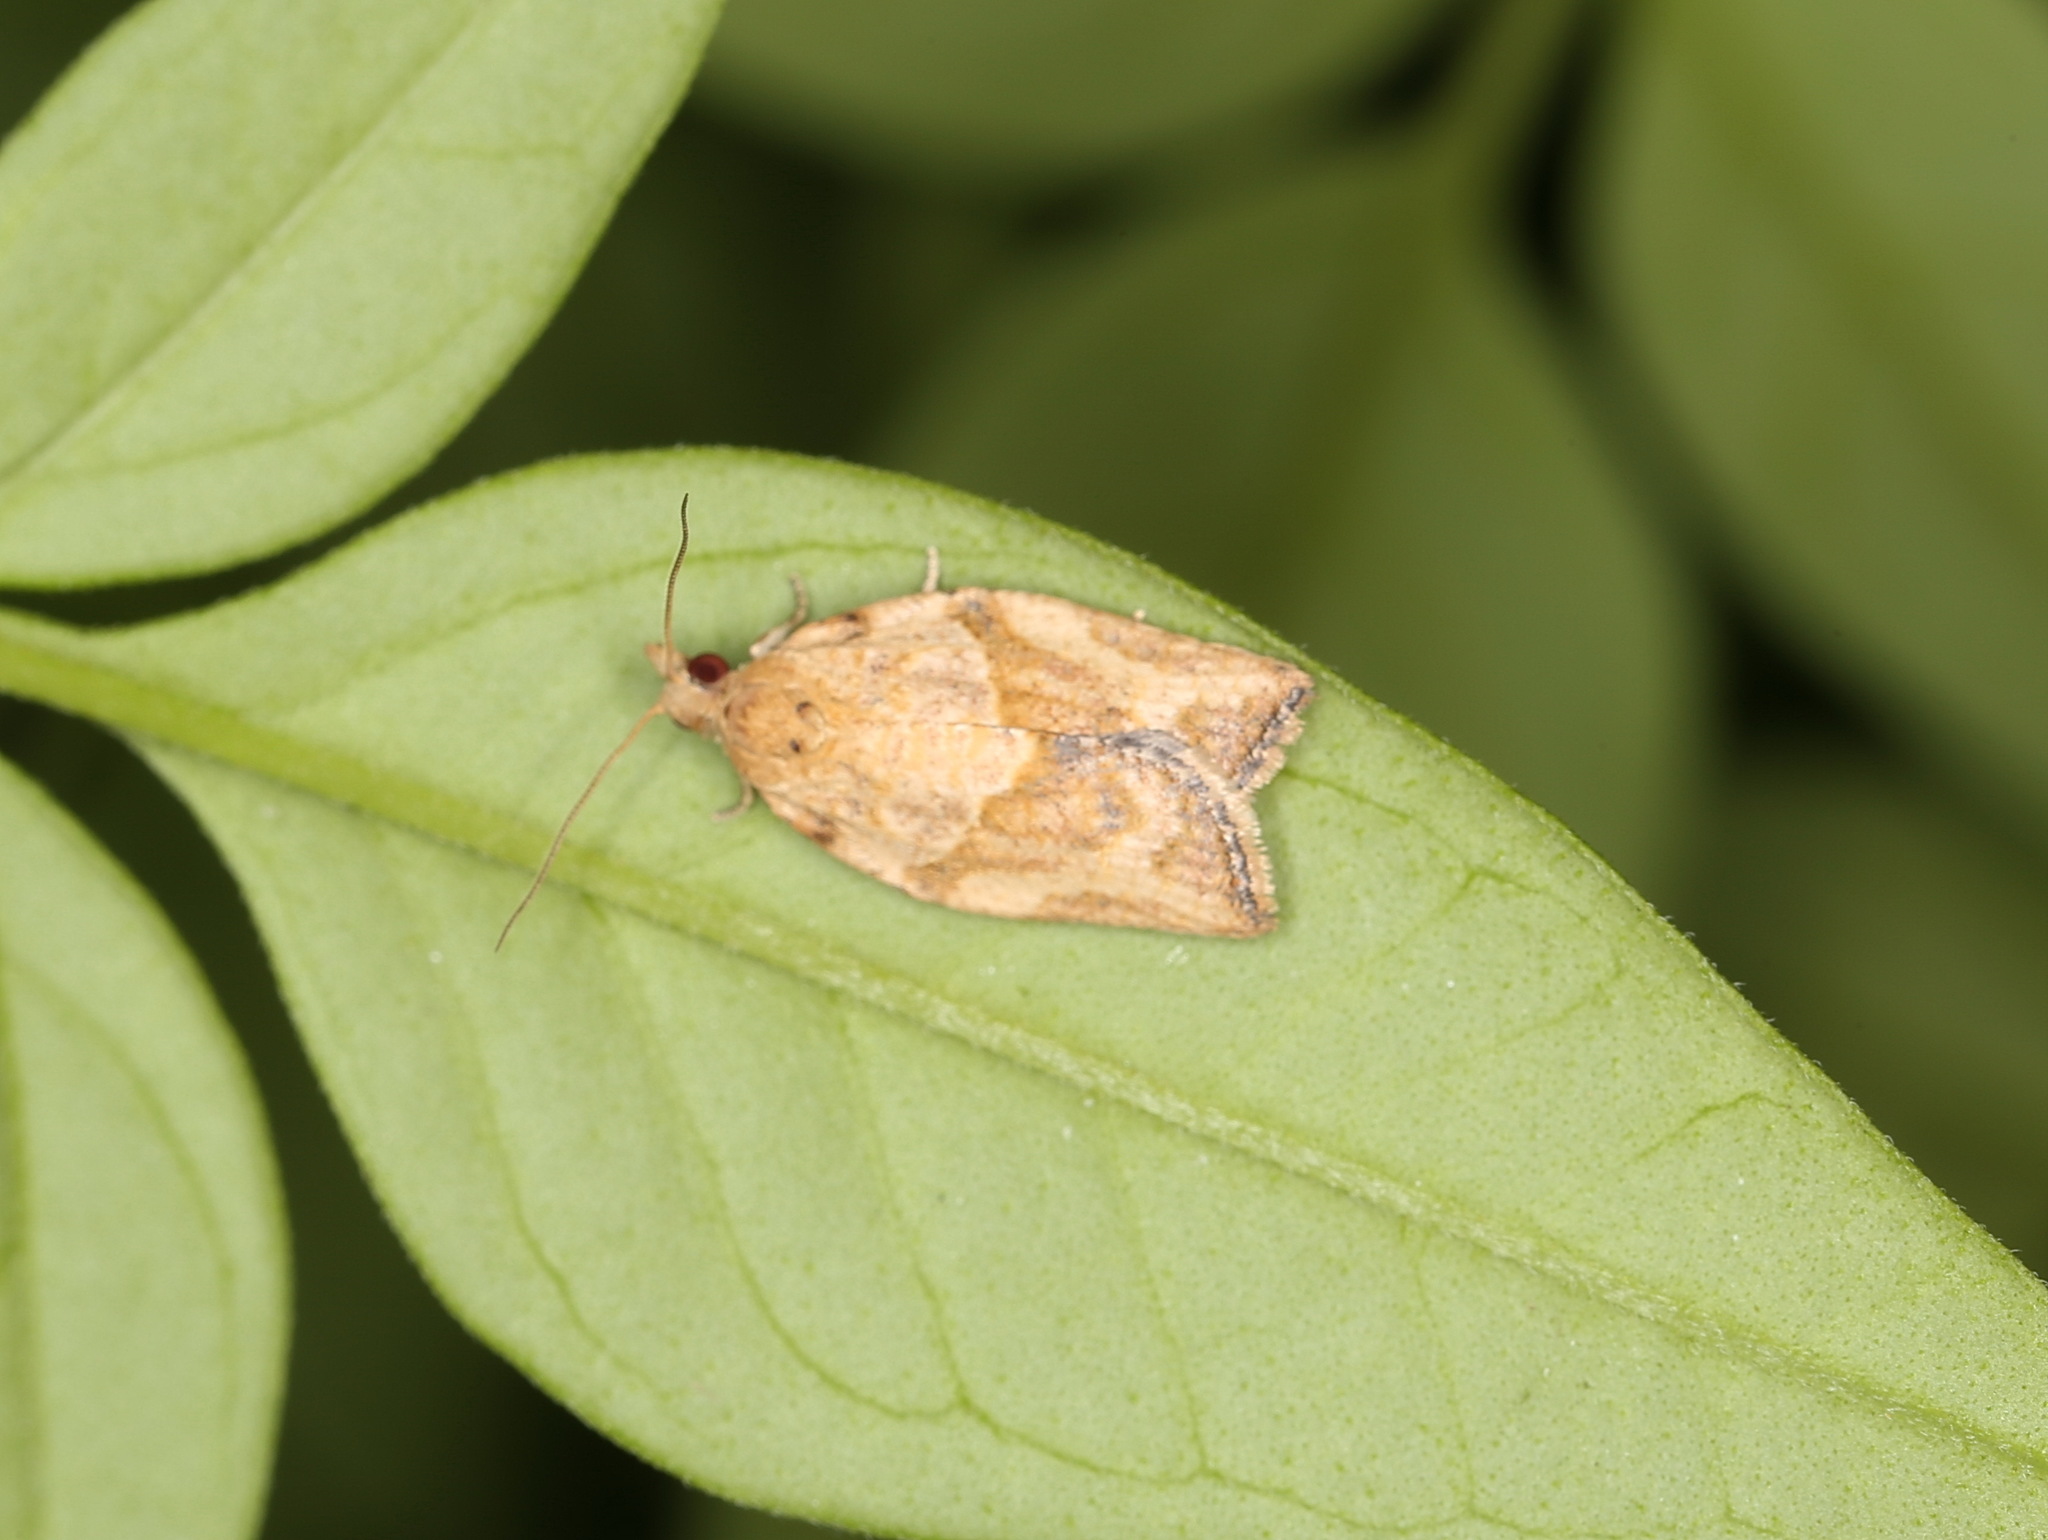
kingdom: Animalia
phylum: Arthropoda
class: Insecta
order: Lepidoptera
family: Tortricidae
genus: Epiphyas
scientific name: Epiphyas postvittana
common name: Light brown apple moth
